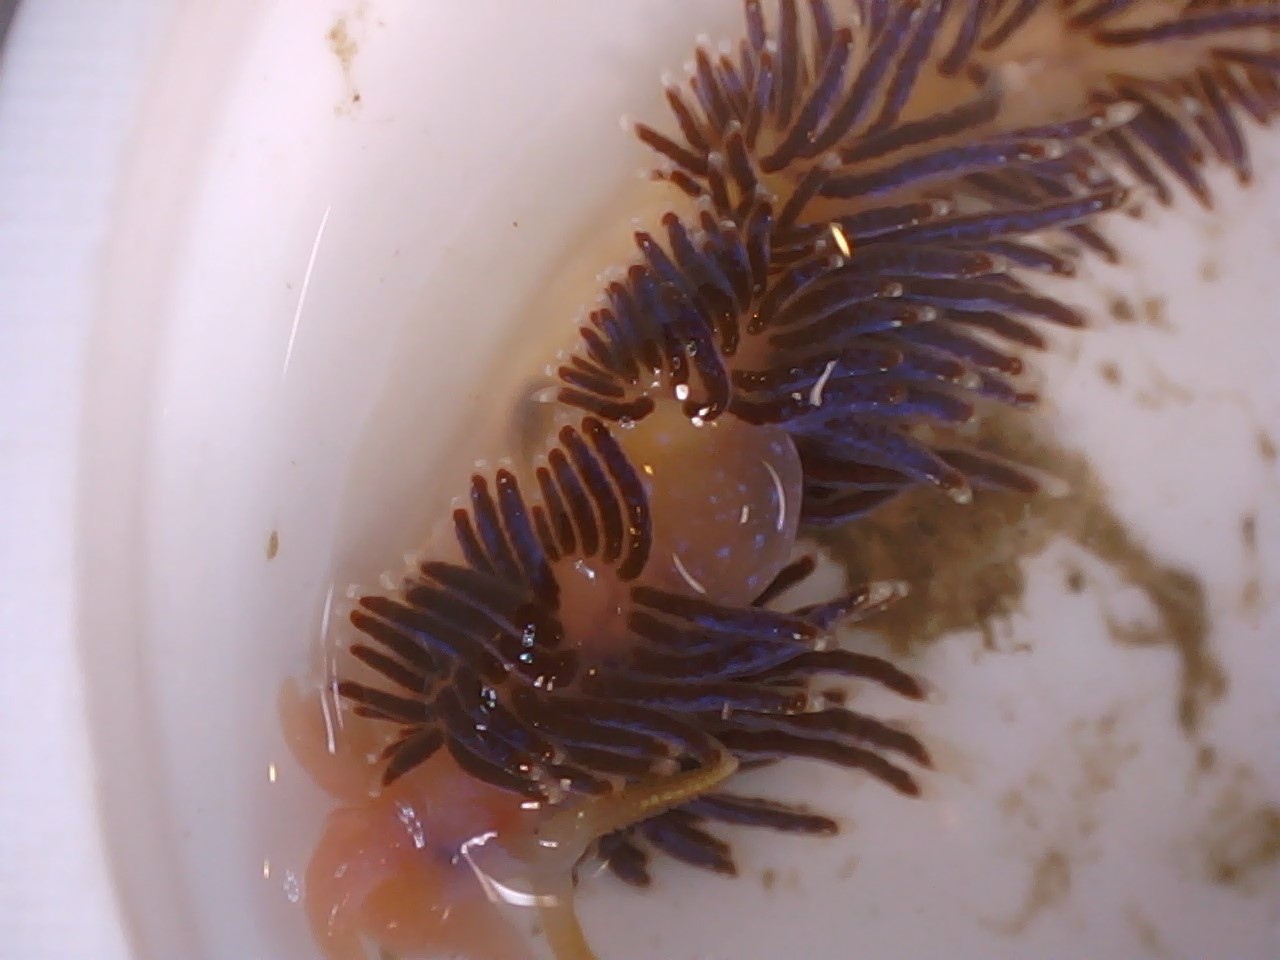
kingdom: Animalia
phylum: Mollusca
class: Gastropoda
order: Nudibranchia
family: Facelinidae
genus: Facelina
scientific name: Facelina auriculata
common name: Slender facelina
